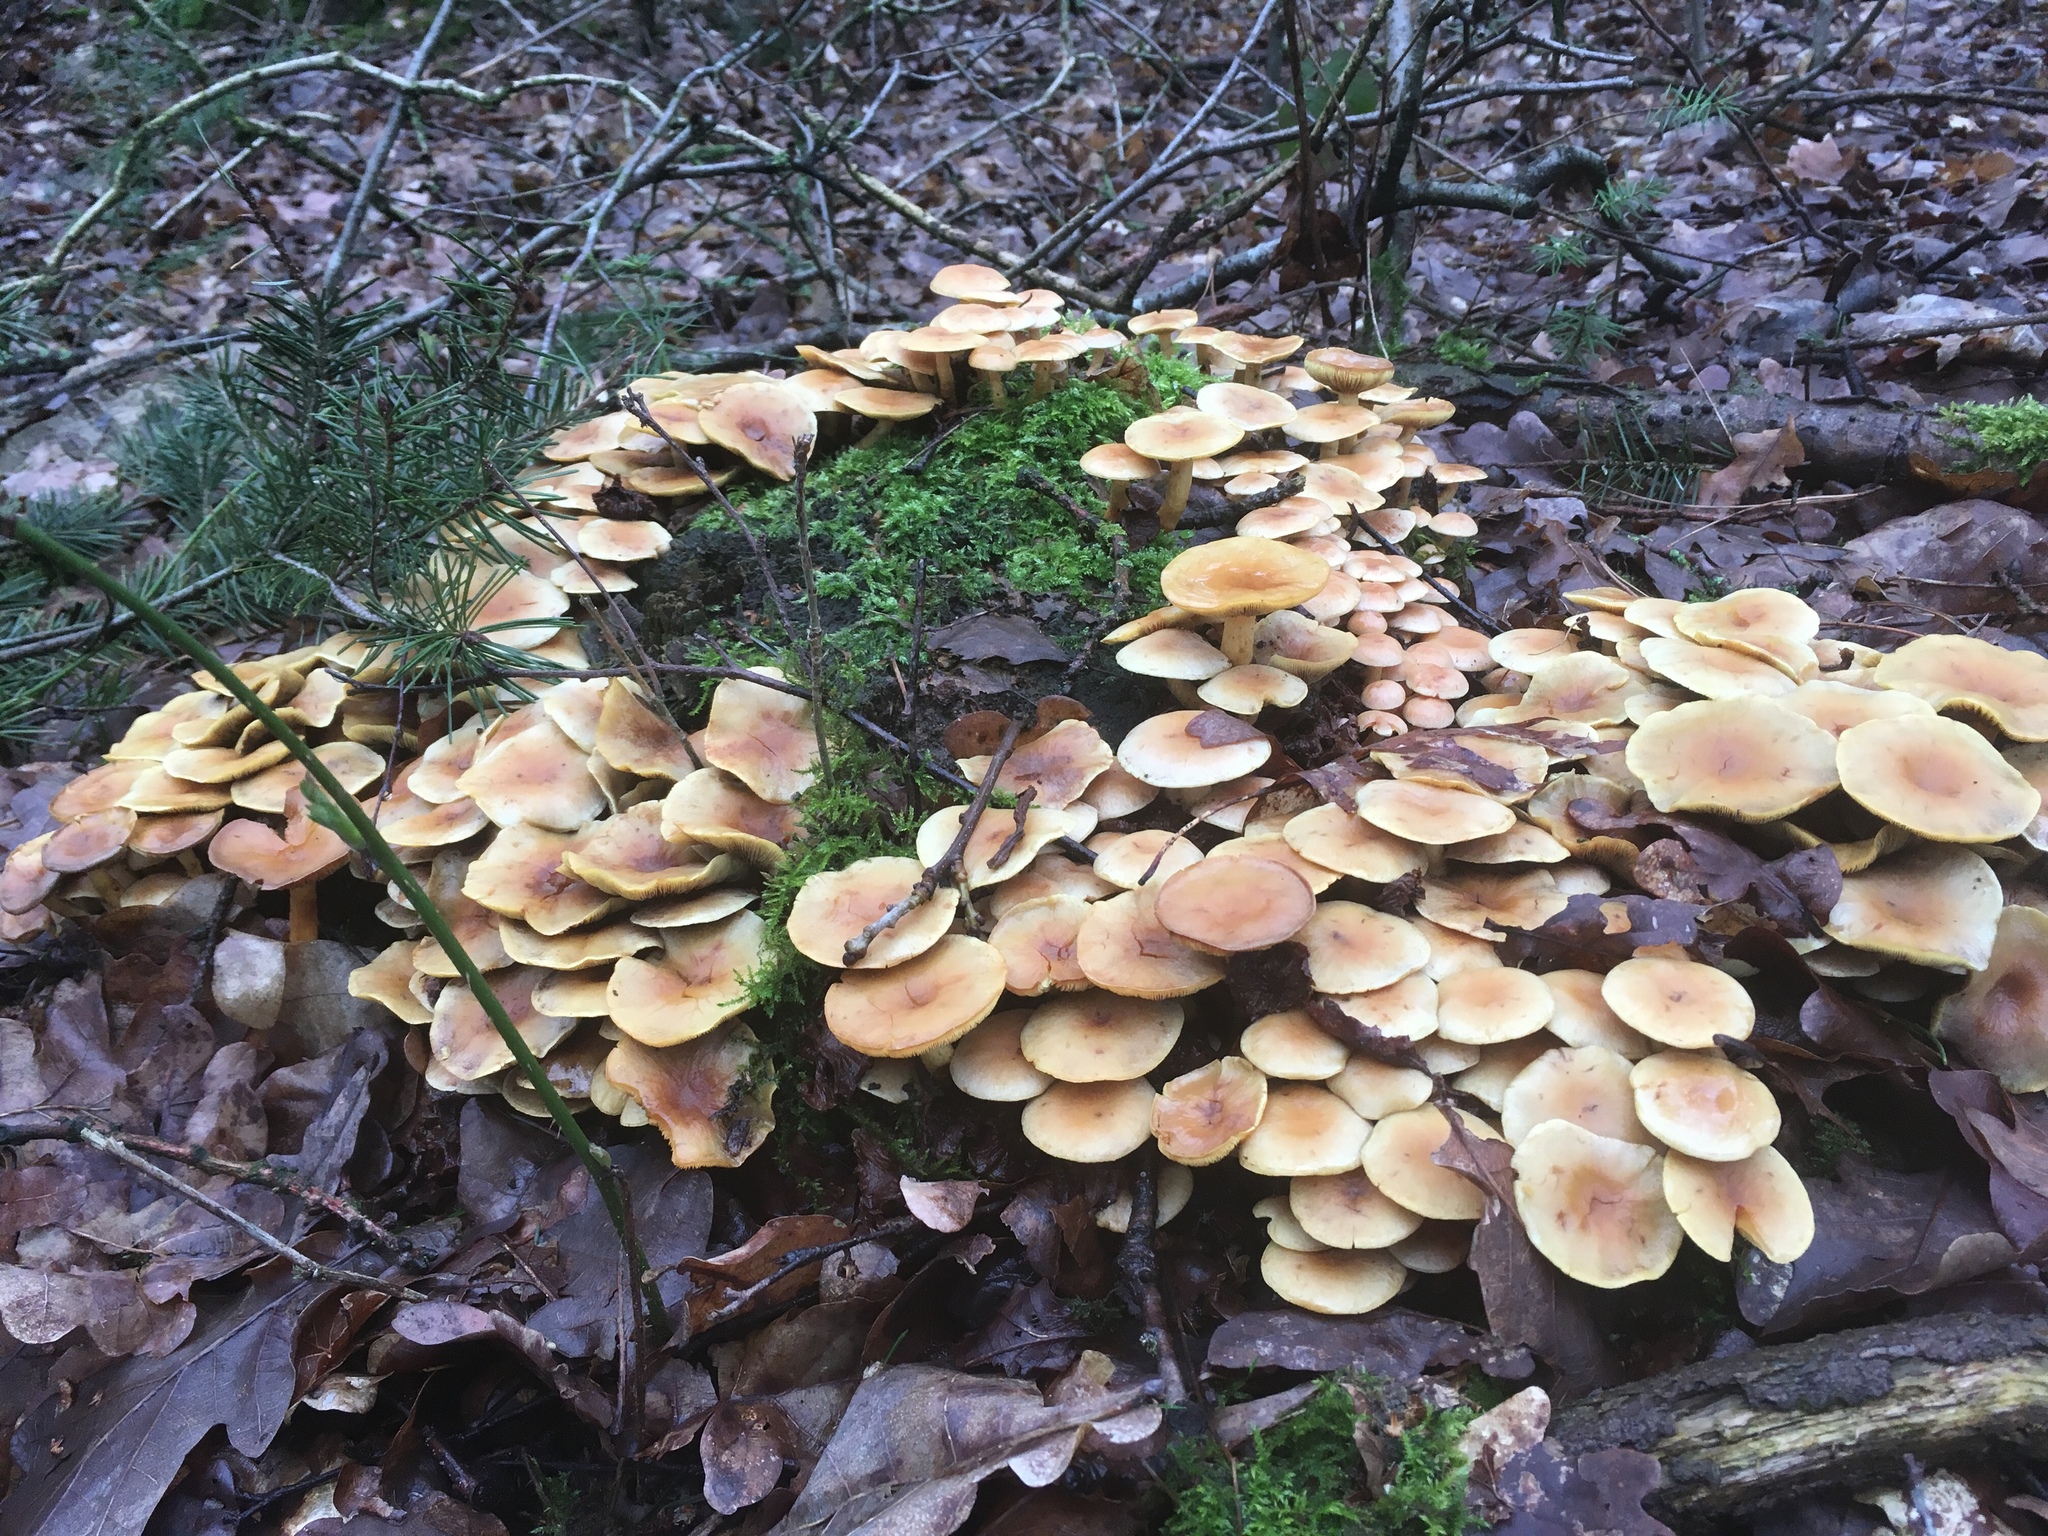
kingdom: Fungi
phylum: Basidiomycota
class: Agaricomycetes
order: Agaricales
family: Strophariaceae
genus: Hypholoma
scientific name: Hypholoma fasciculare
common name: Sulphur tuft
